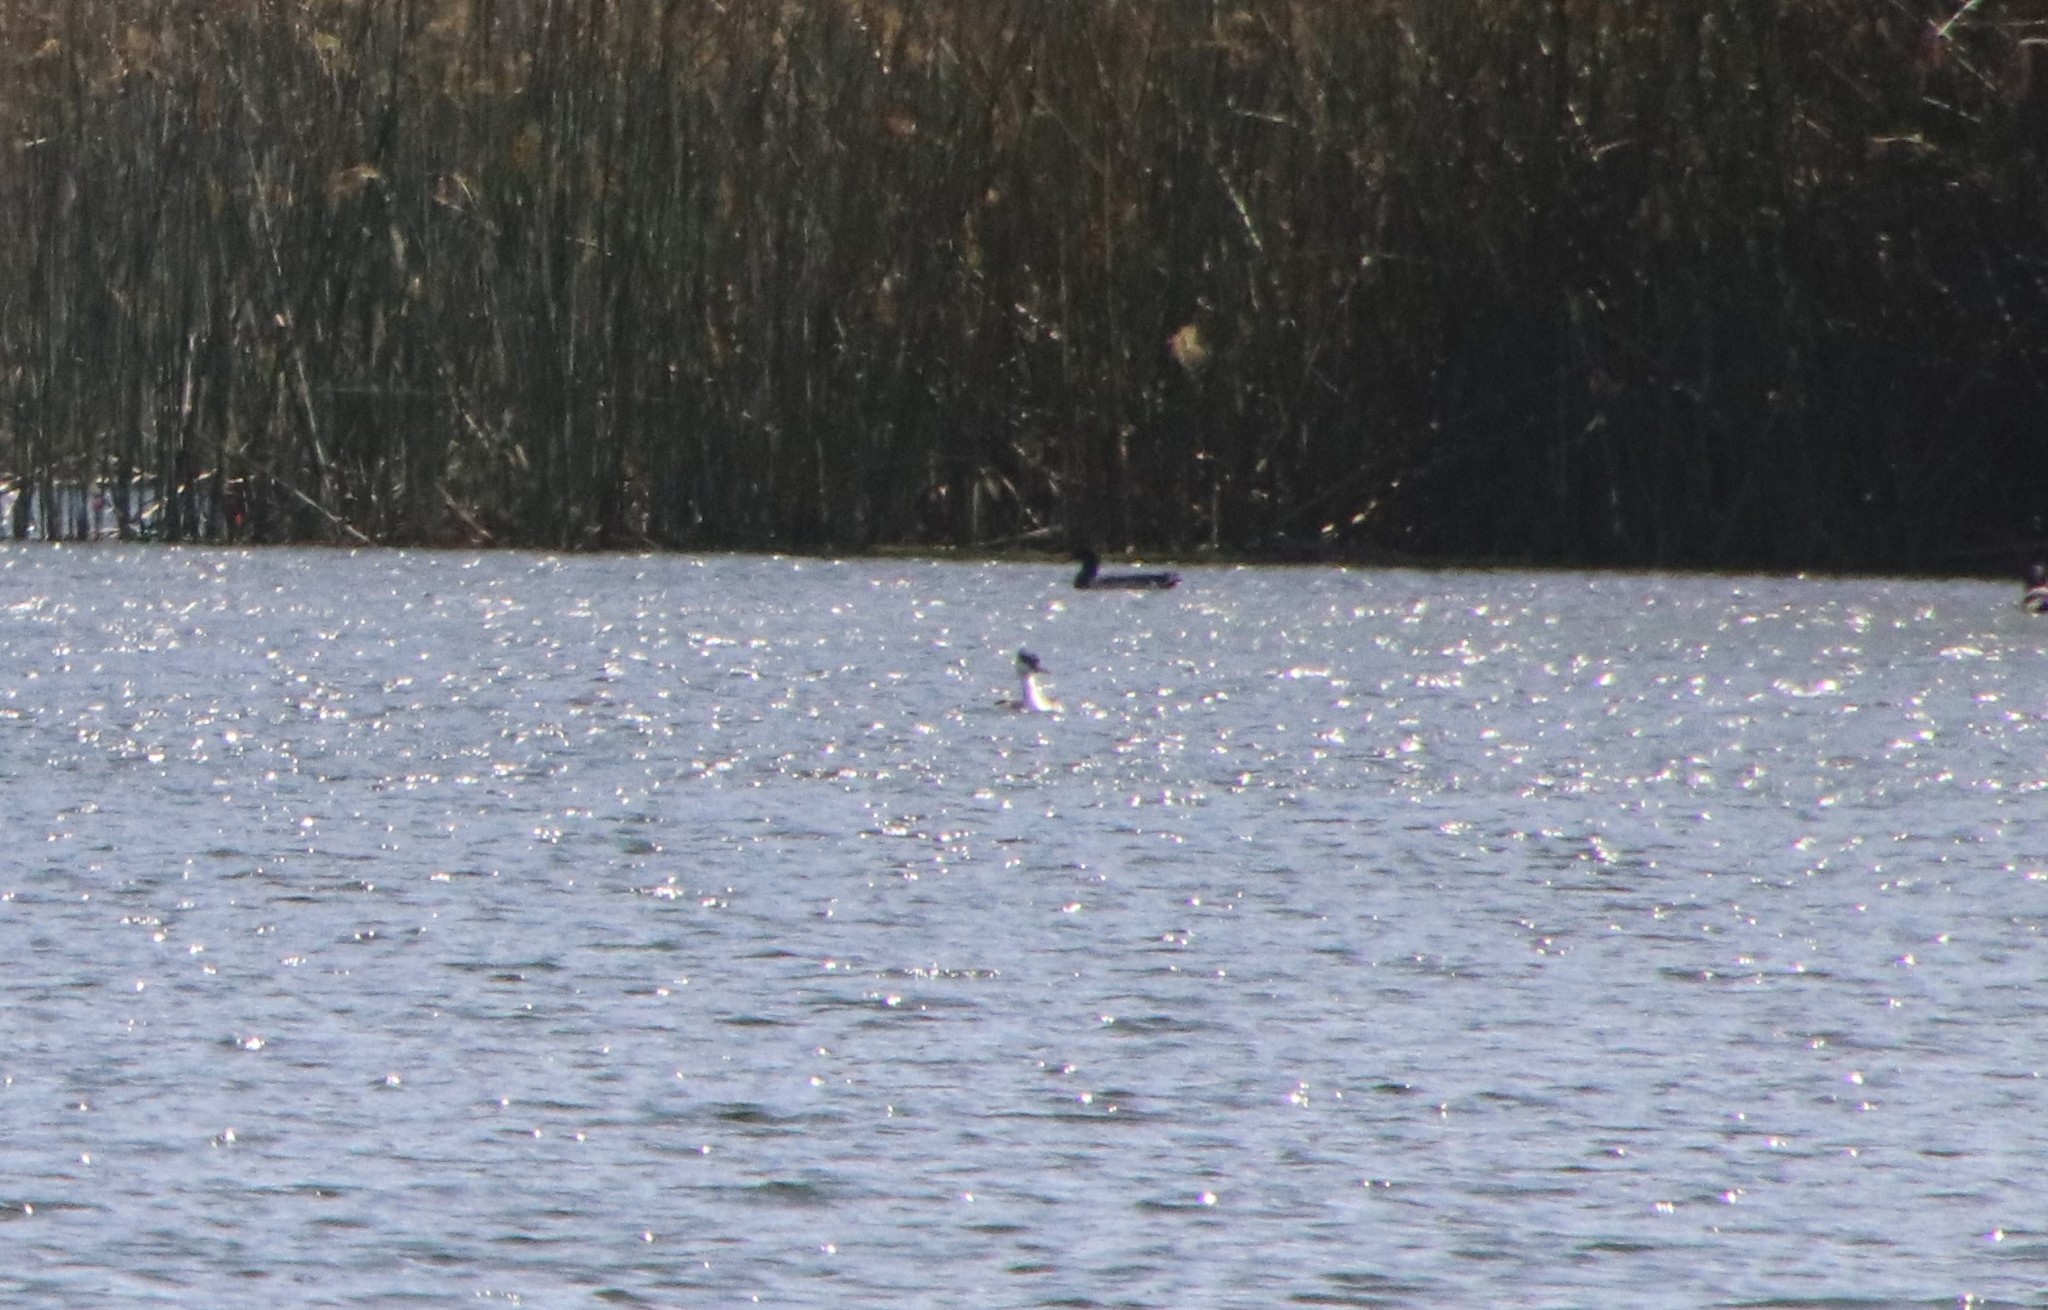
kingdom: Animalia
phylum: Chordata
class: Aves
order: Podicipediformes
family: Podicipedidae
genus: Aechmophorus
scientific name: Aechmophorus occidentalis
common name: Western grebe
